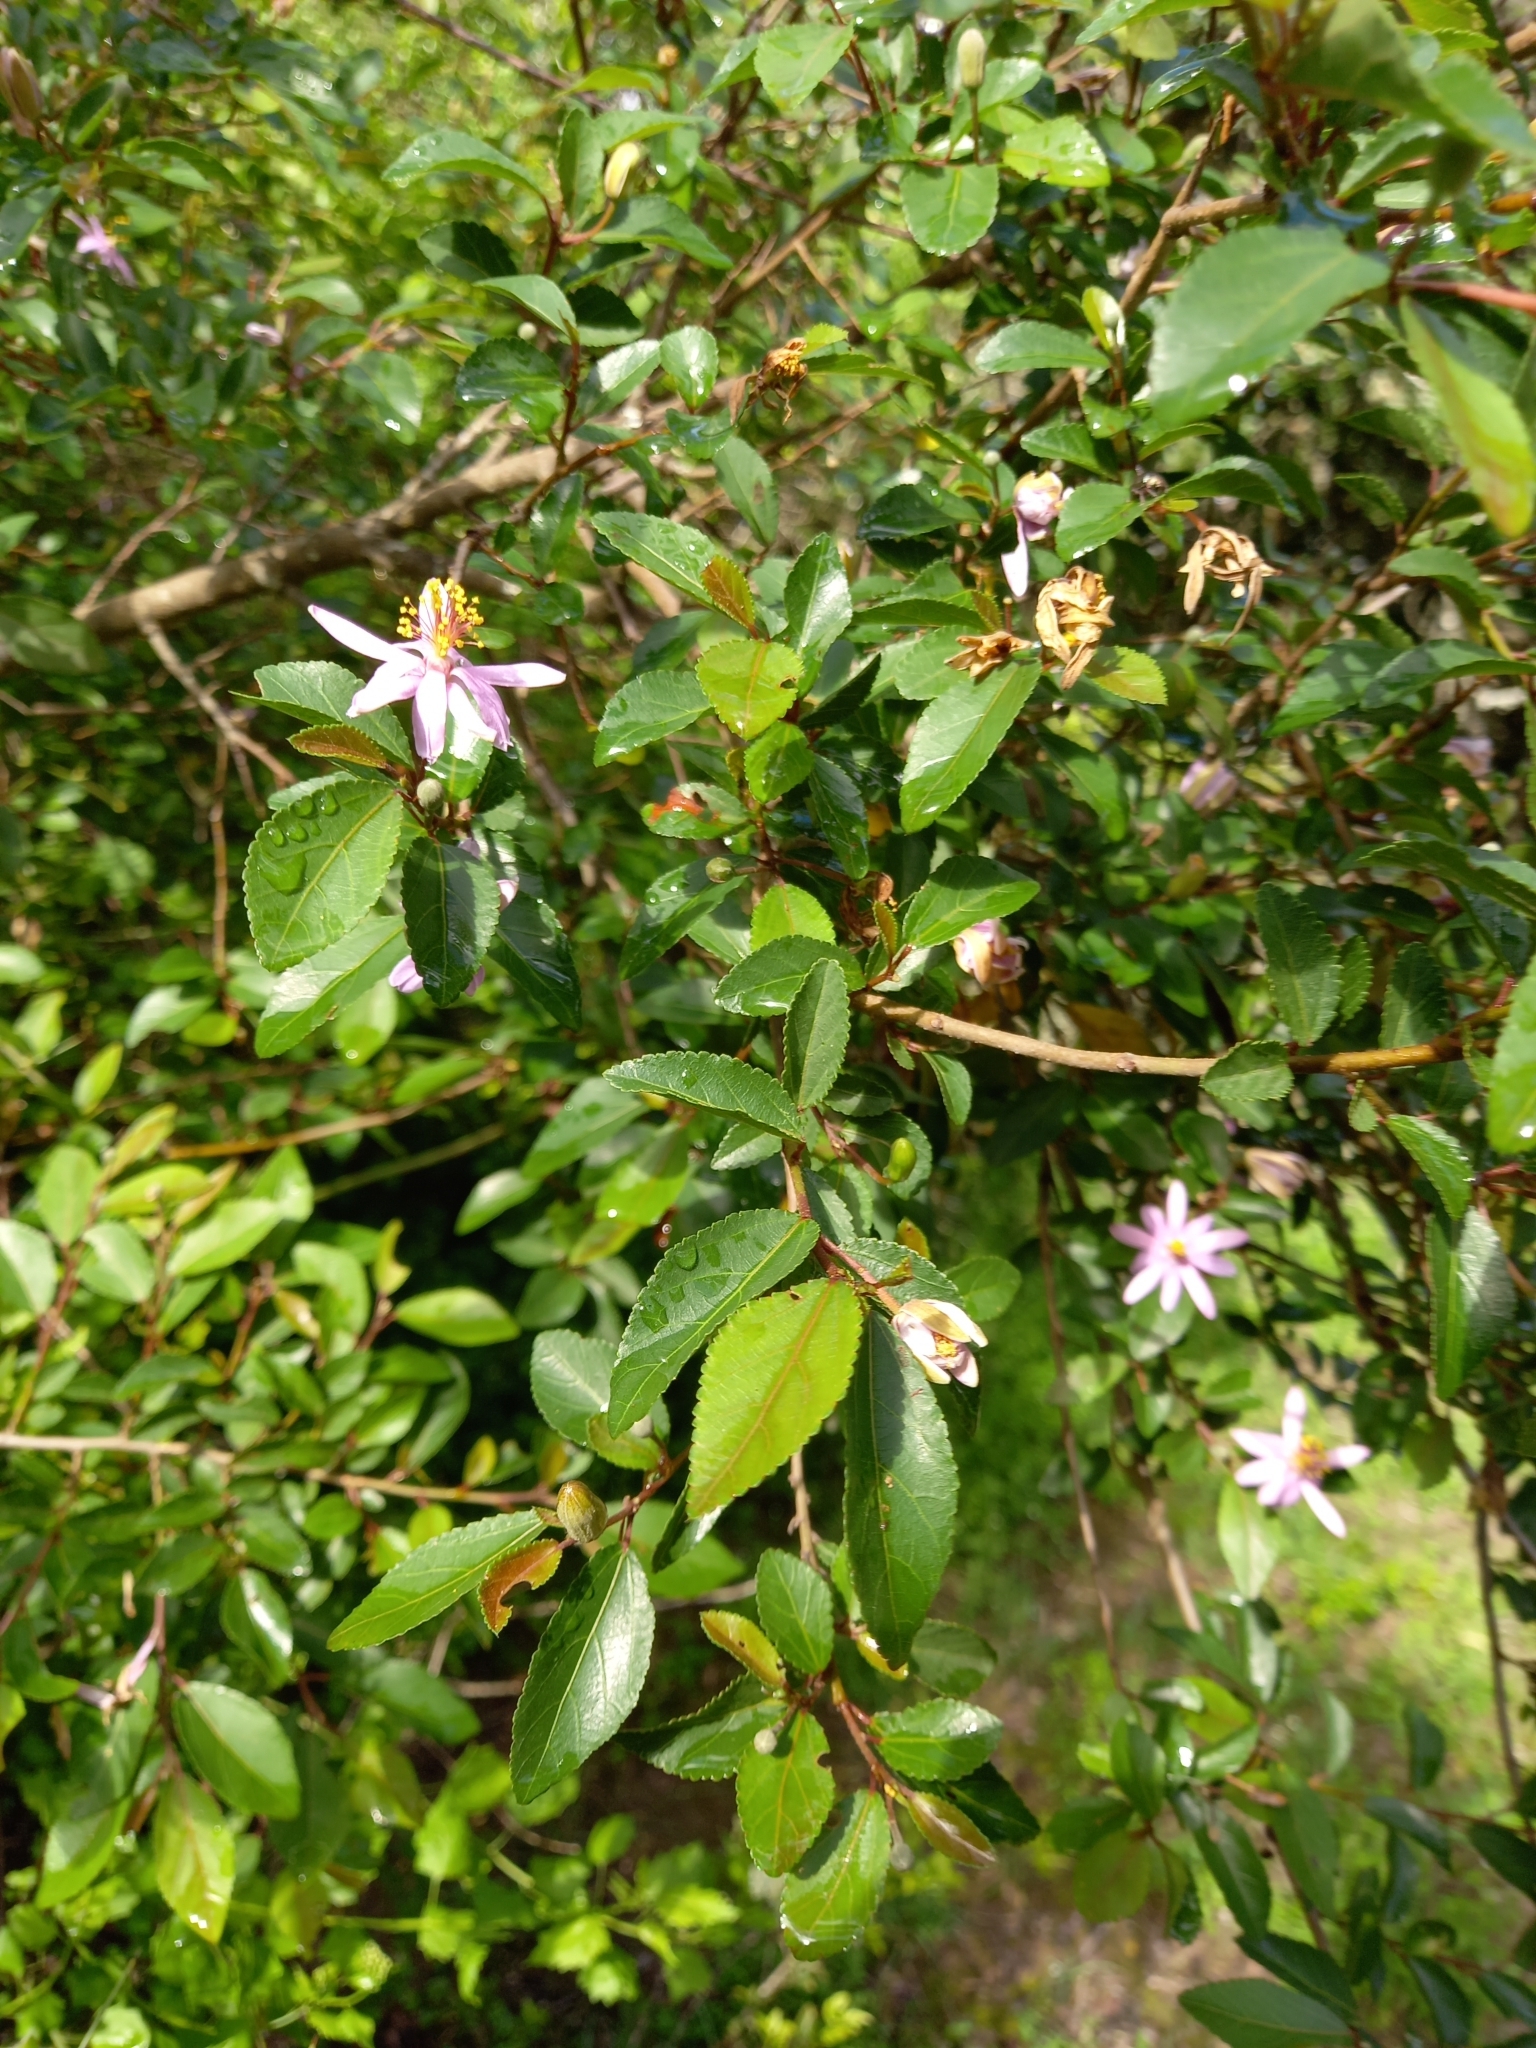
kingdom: Plantae
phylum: Tracheophyta
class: Magnoliopsida
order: Malvales
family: Malvaceae
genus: Grewia
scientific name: Grewia occidentalis
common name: Crossberry
